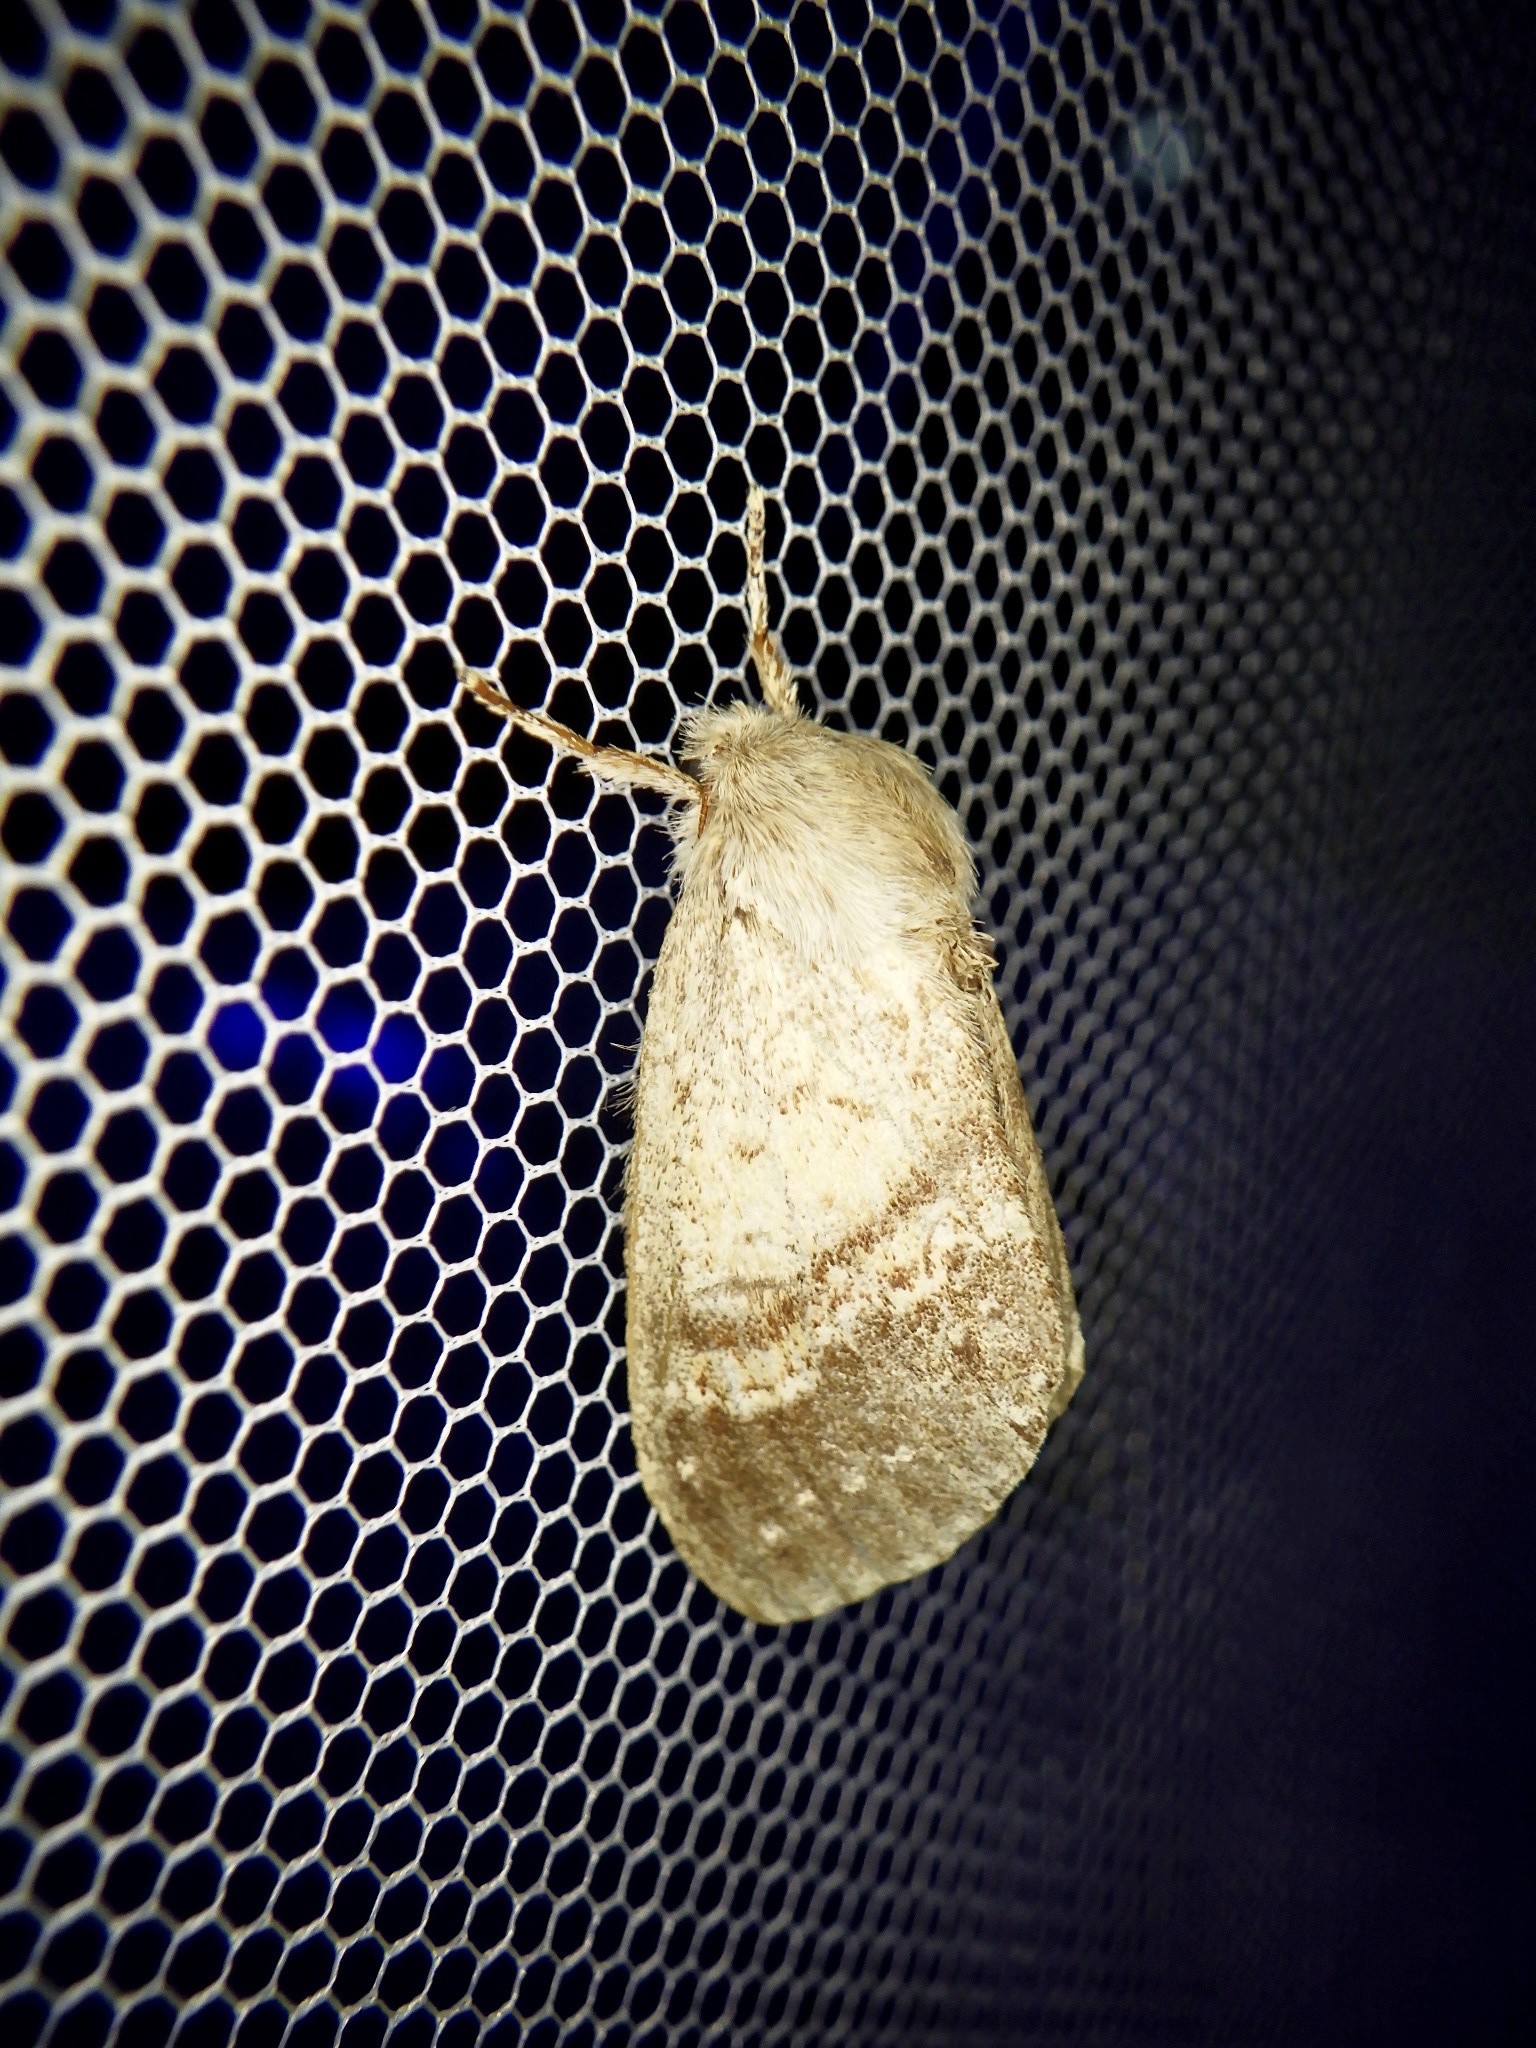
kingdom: Animalia
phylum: Arthropoda
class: Insecta
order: Lepidoptera
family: Notodontidae
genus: Stauropus
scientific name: Stauropus basalis
